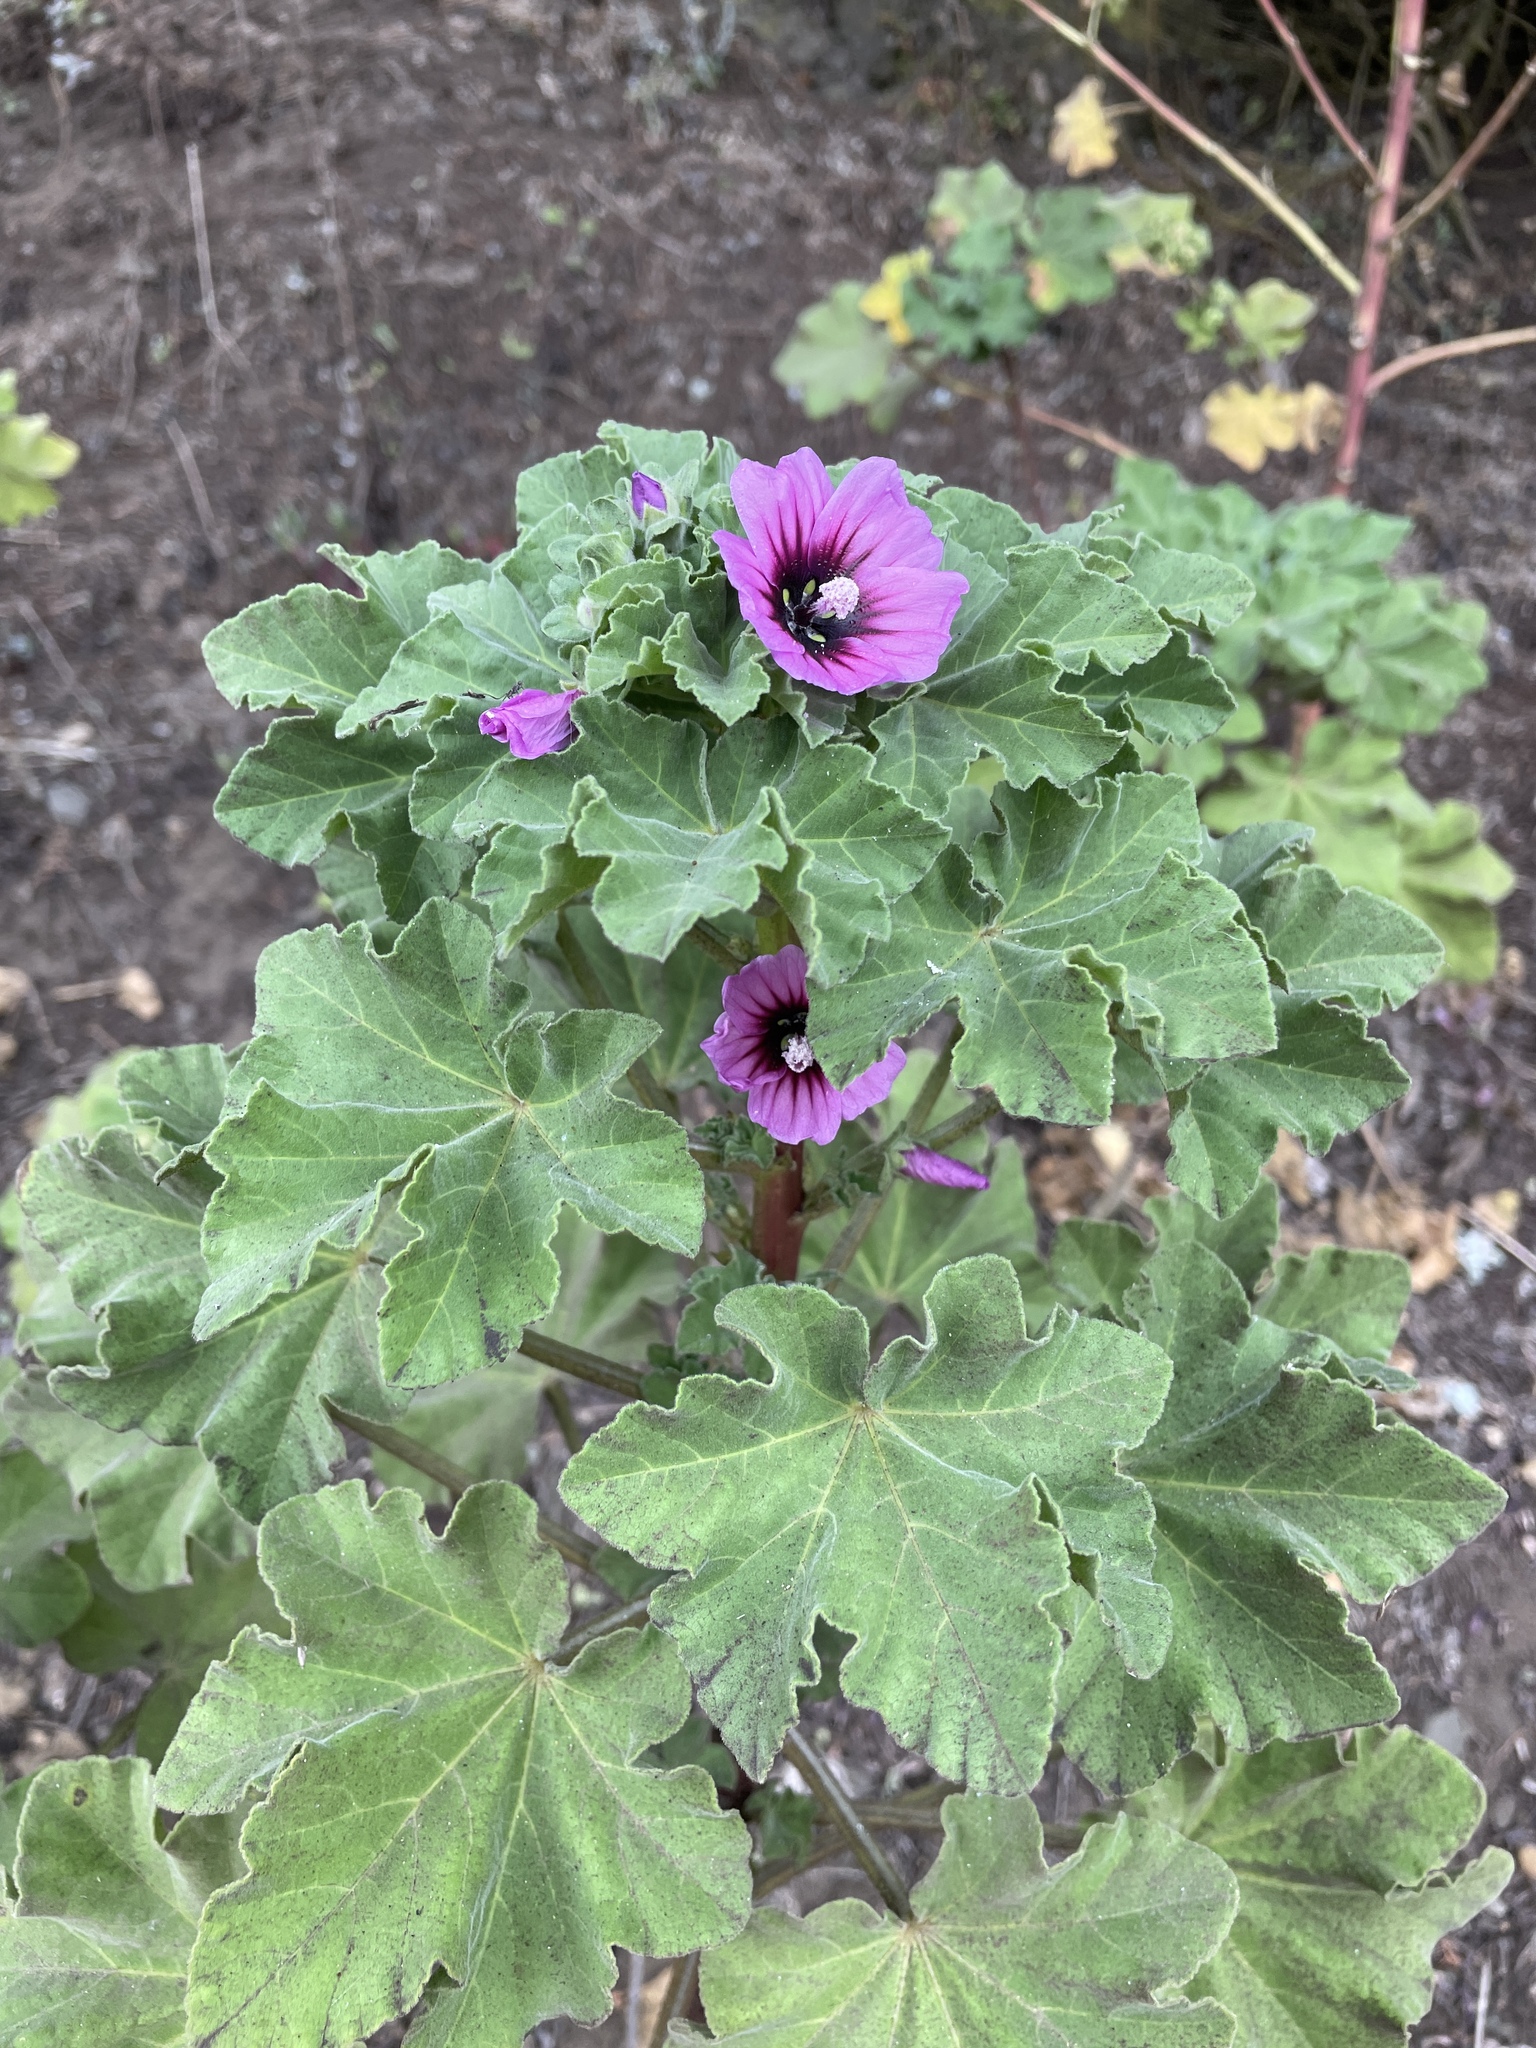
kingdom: Plantae
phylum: Tracheophyta
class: Magnoliopsida
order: Malvales
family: Malvaceae
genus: Malva
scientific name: Malva arborea
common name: Tree mallow
